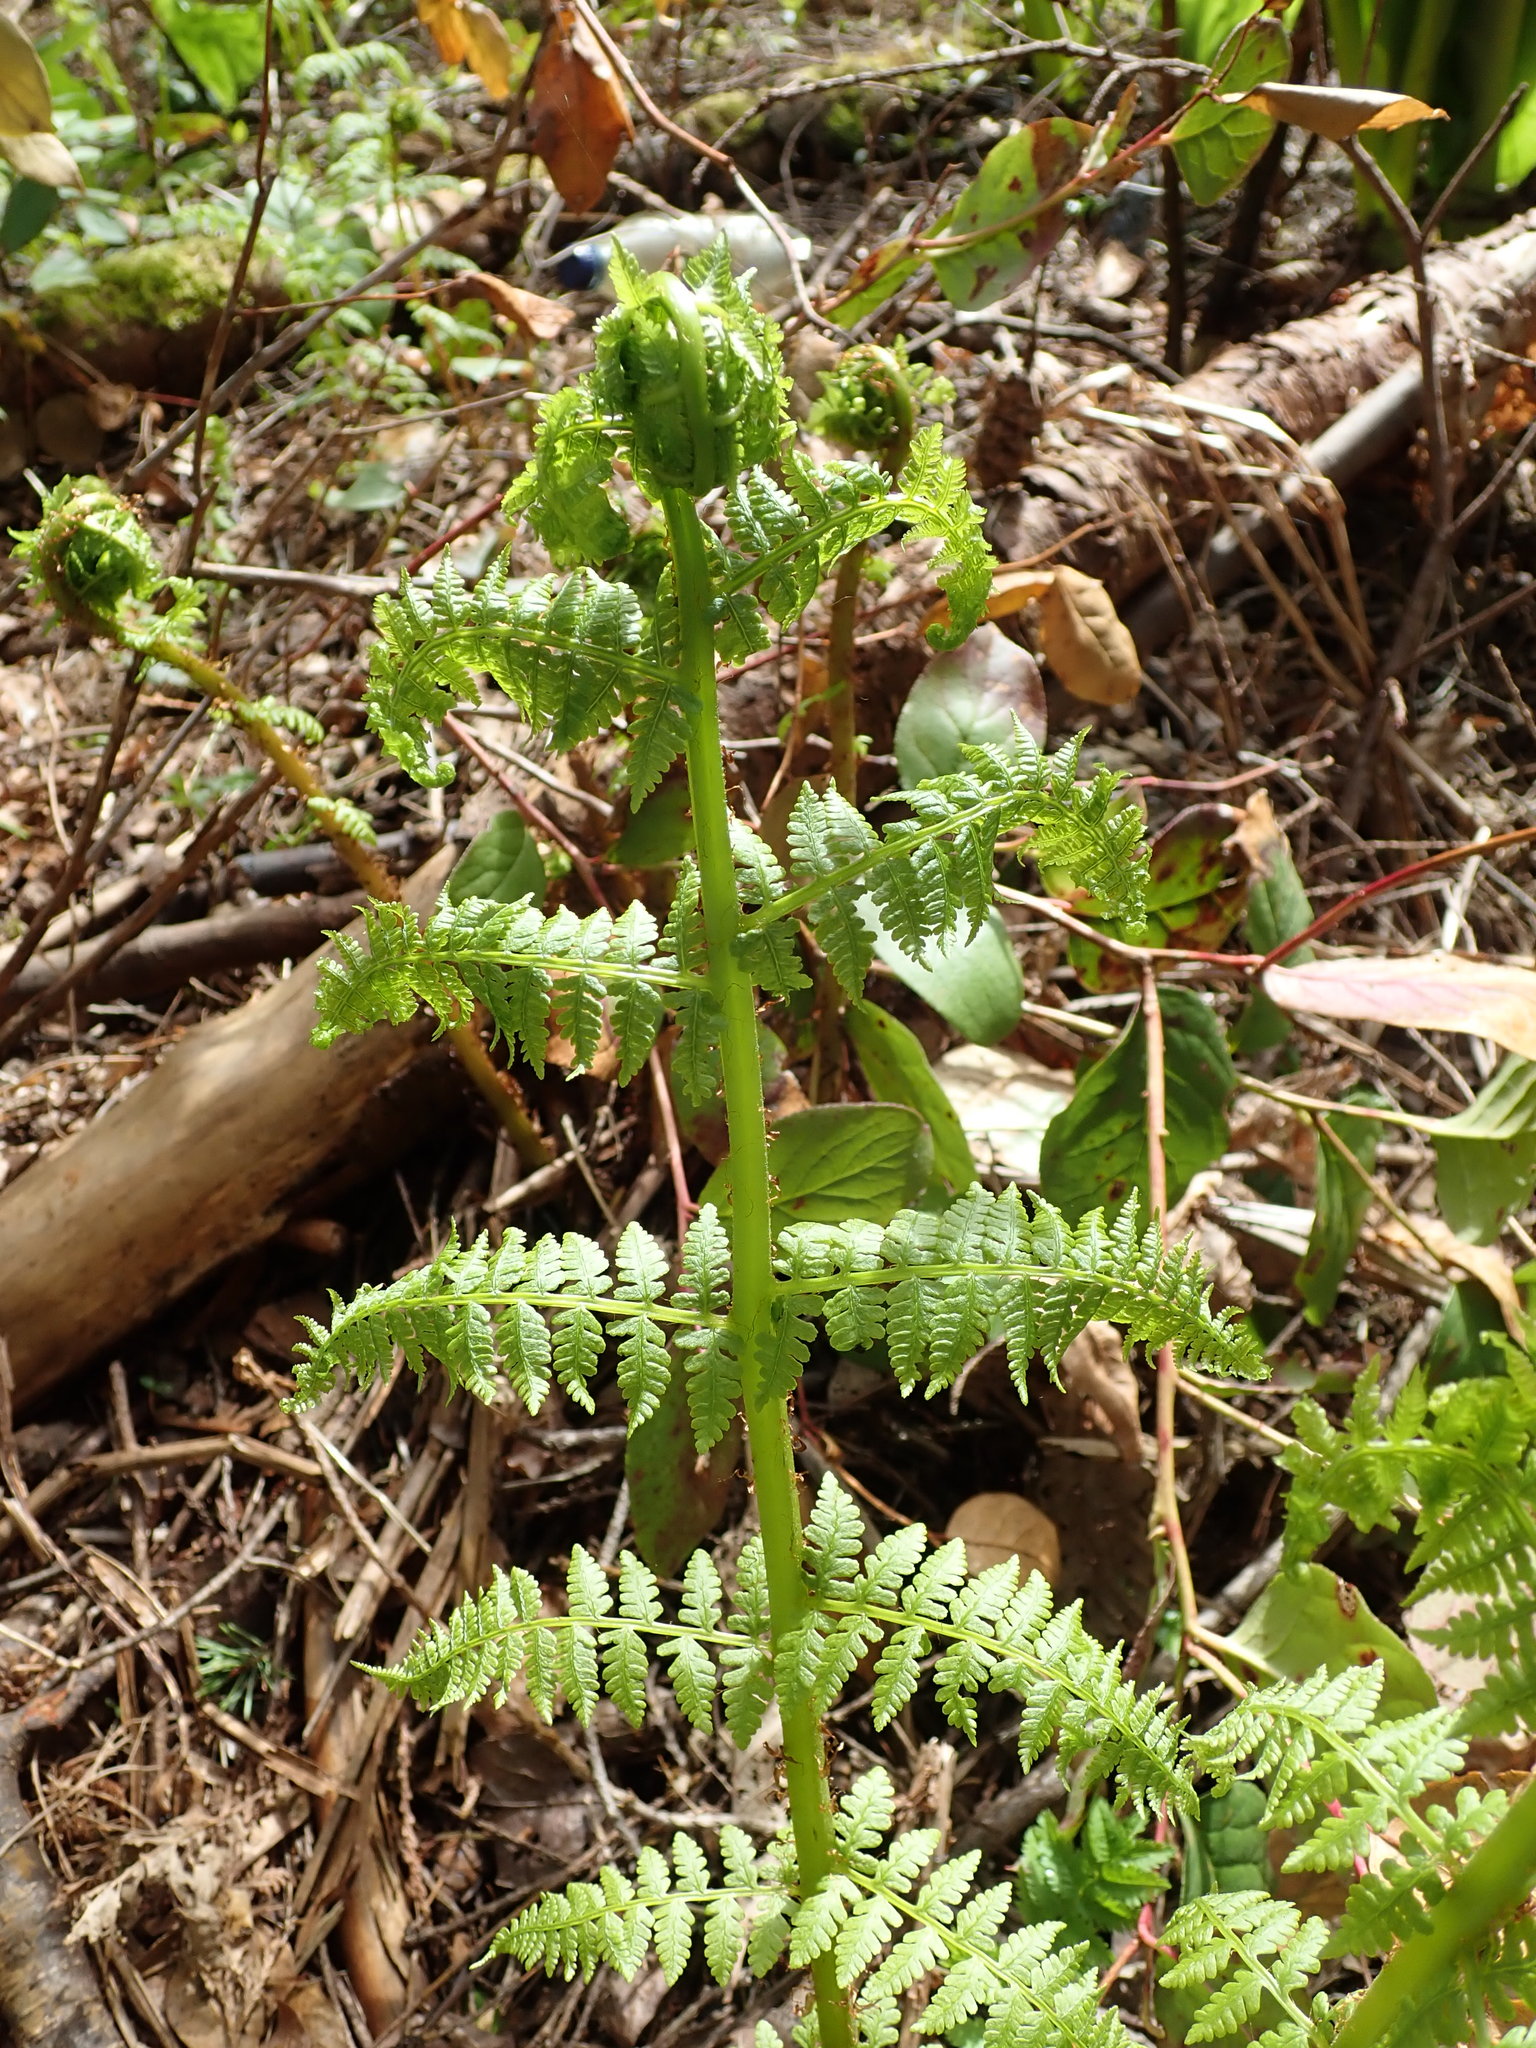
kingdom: Plantae
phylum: Tracheophyta
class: Polypodiopsida
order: Polypodiales
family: Athyriaceae
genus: Athyrium
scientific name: Athyrium filix-femina
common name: Lady fern
